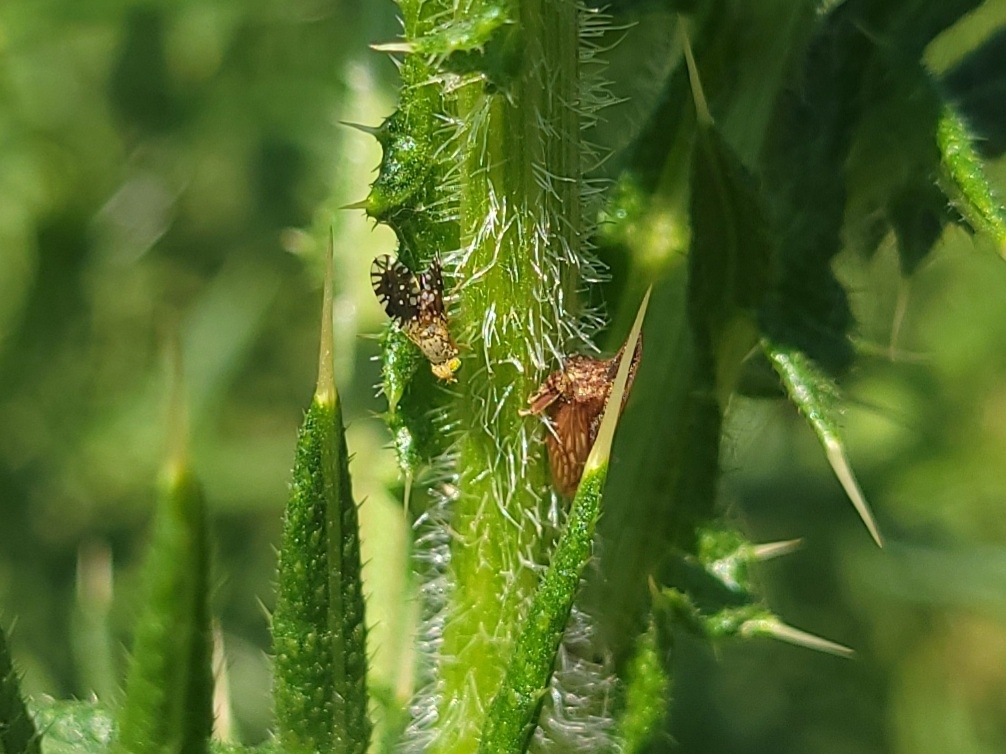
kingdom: Animalia
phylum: Arthropoda
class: Insecta
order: Diptera
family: Tephritidae
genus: Euaresta
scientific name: Euaresta bella
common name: Common ragweed fruit fly
